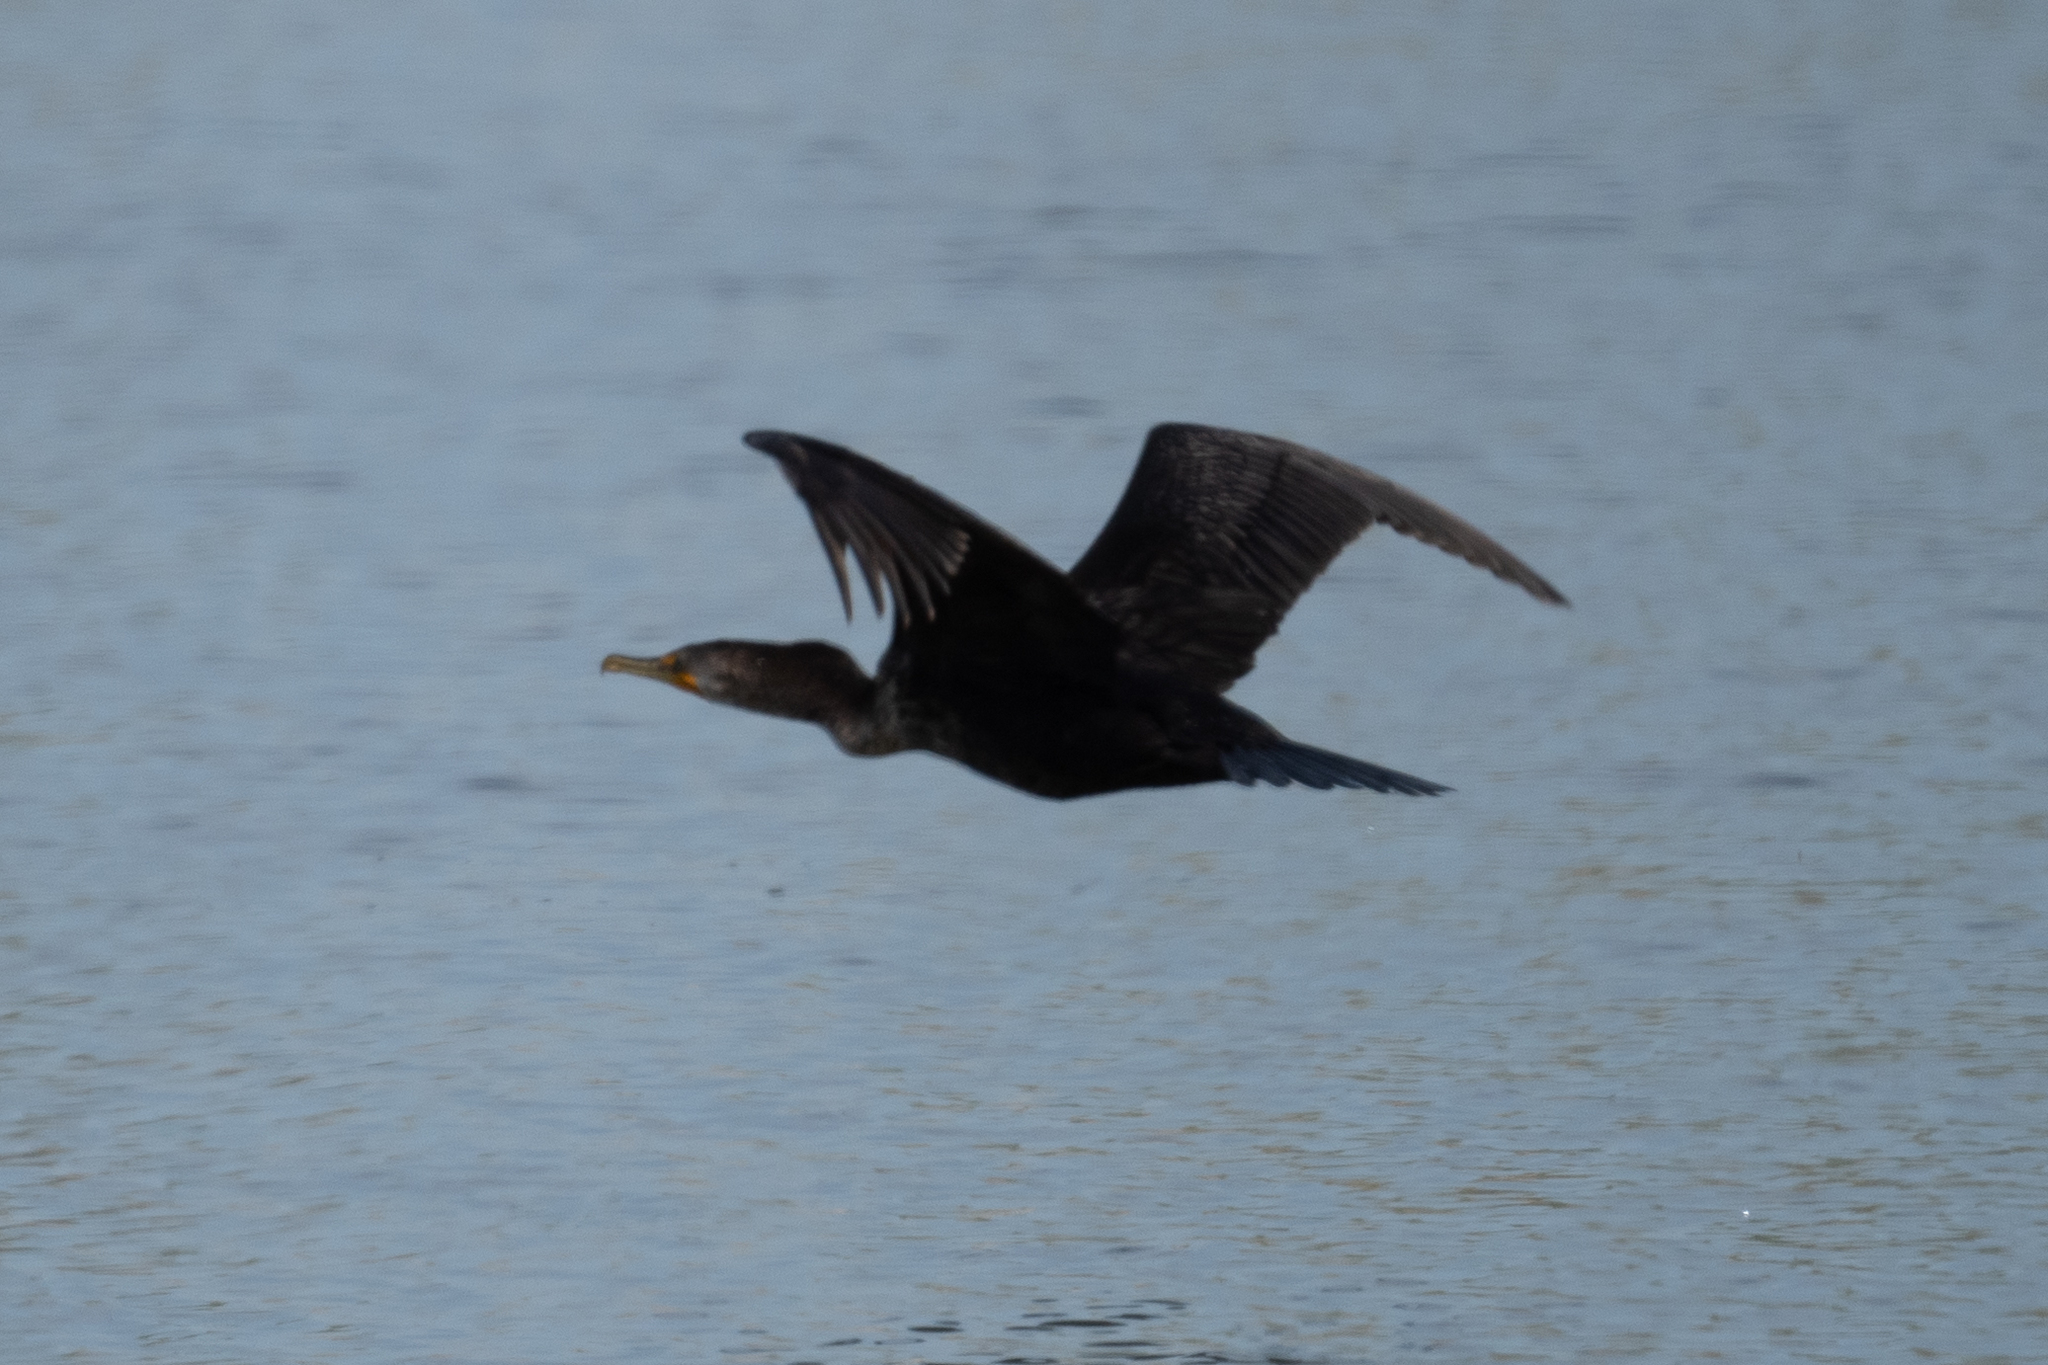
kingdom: Animalia
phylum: Chordata
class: Aves
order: Suliformes
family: Phalacrocoracidae
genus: Phalacrocorax
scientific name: Phalacrocorax auritus
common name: Double-crested cormorant
